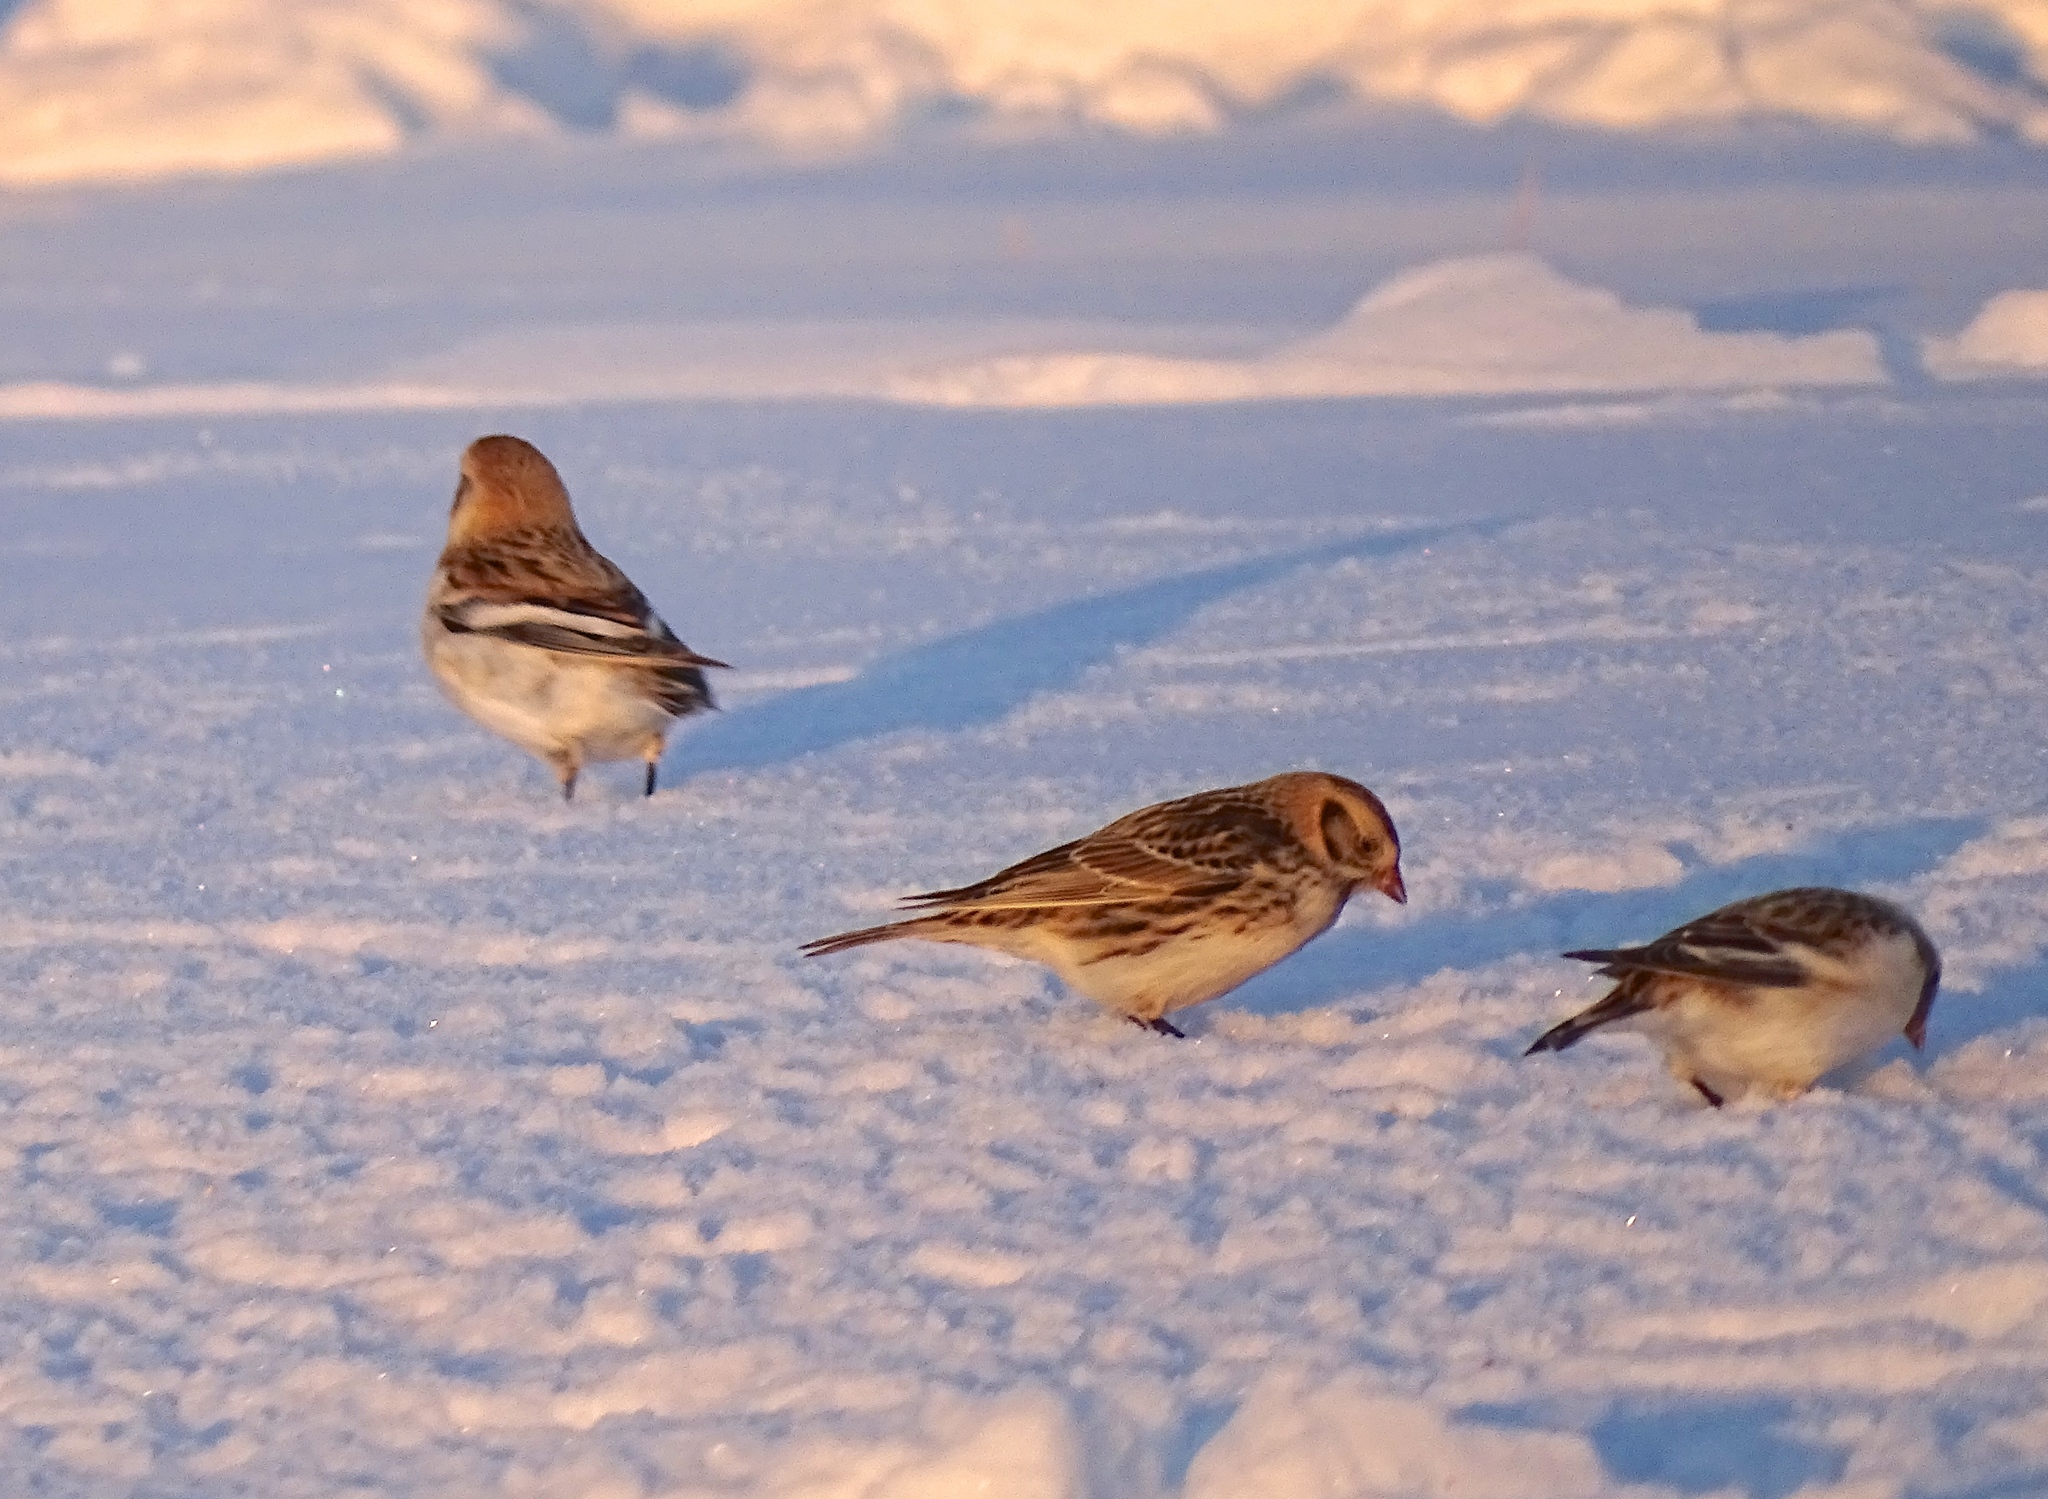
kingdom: Animalia
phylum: Chordata
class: Aves
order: Passeriformes
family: Calcariidae
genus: Plectrophenax
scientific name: Plectrophenax nivalis
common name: Snow bunting
